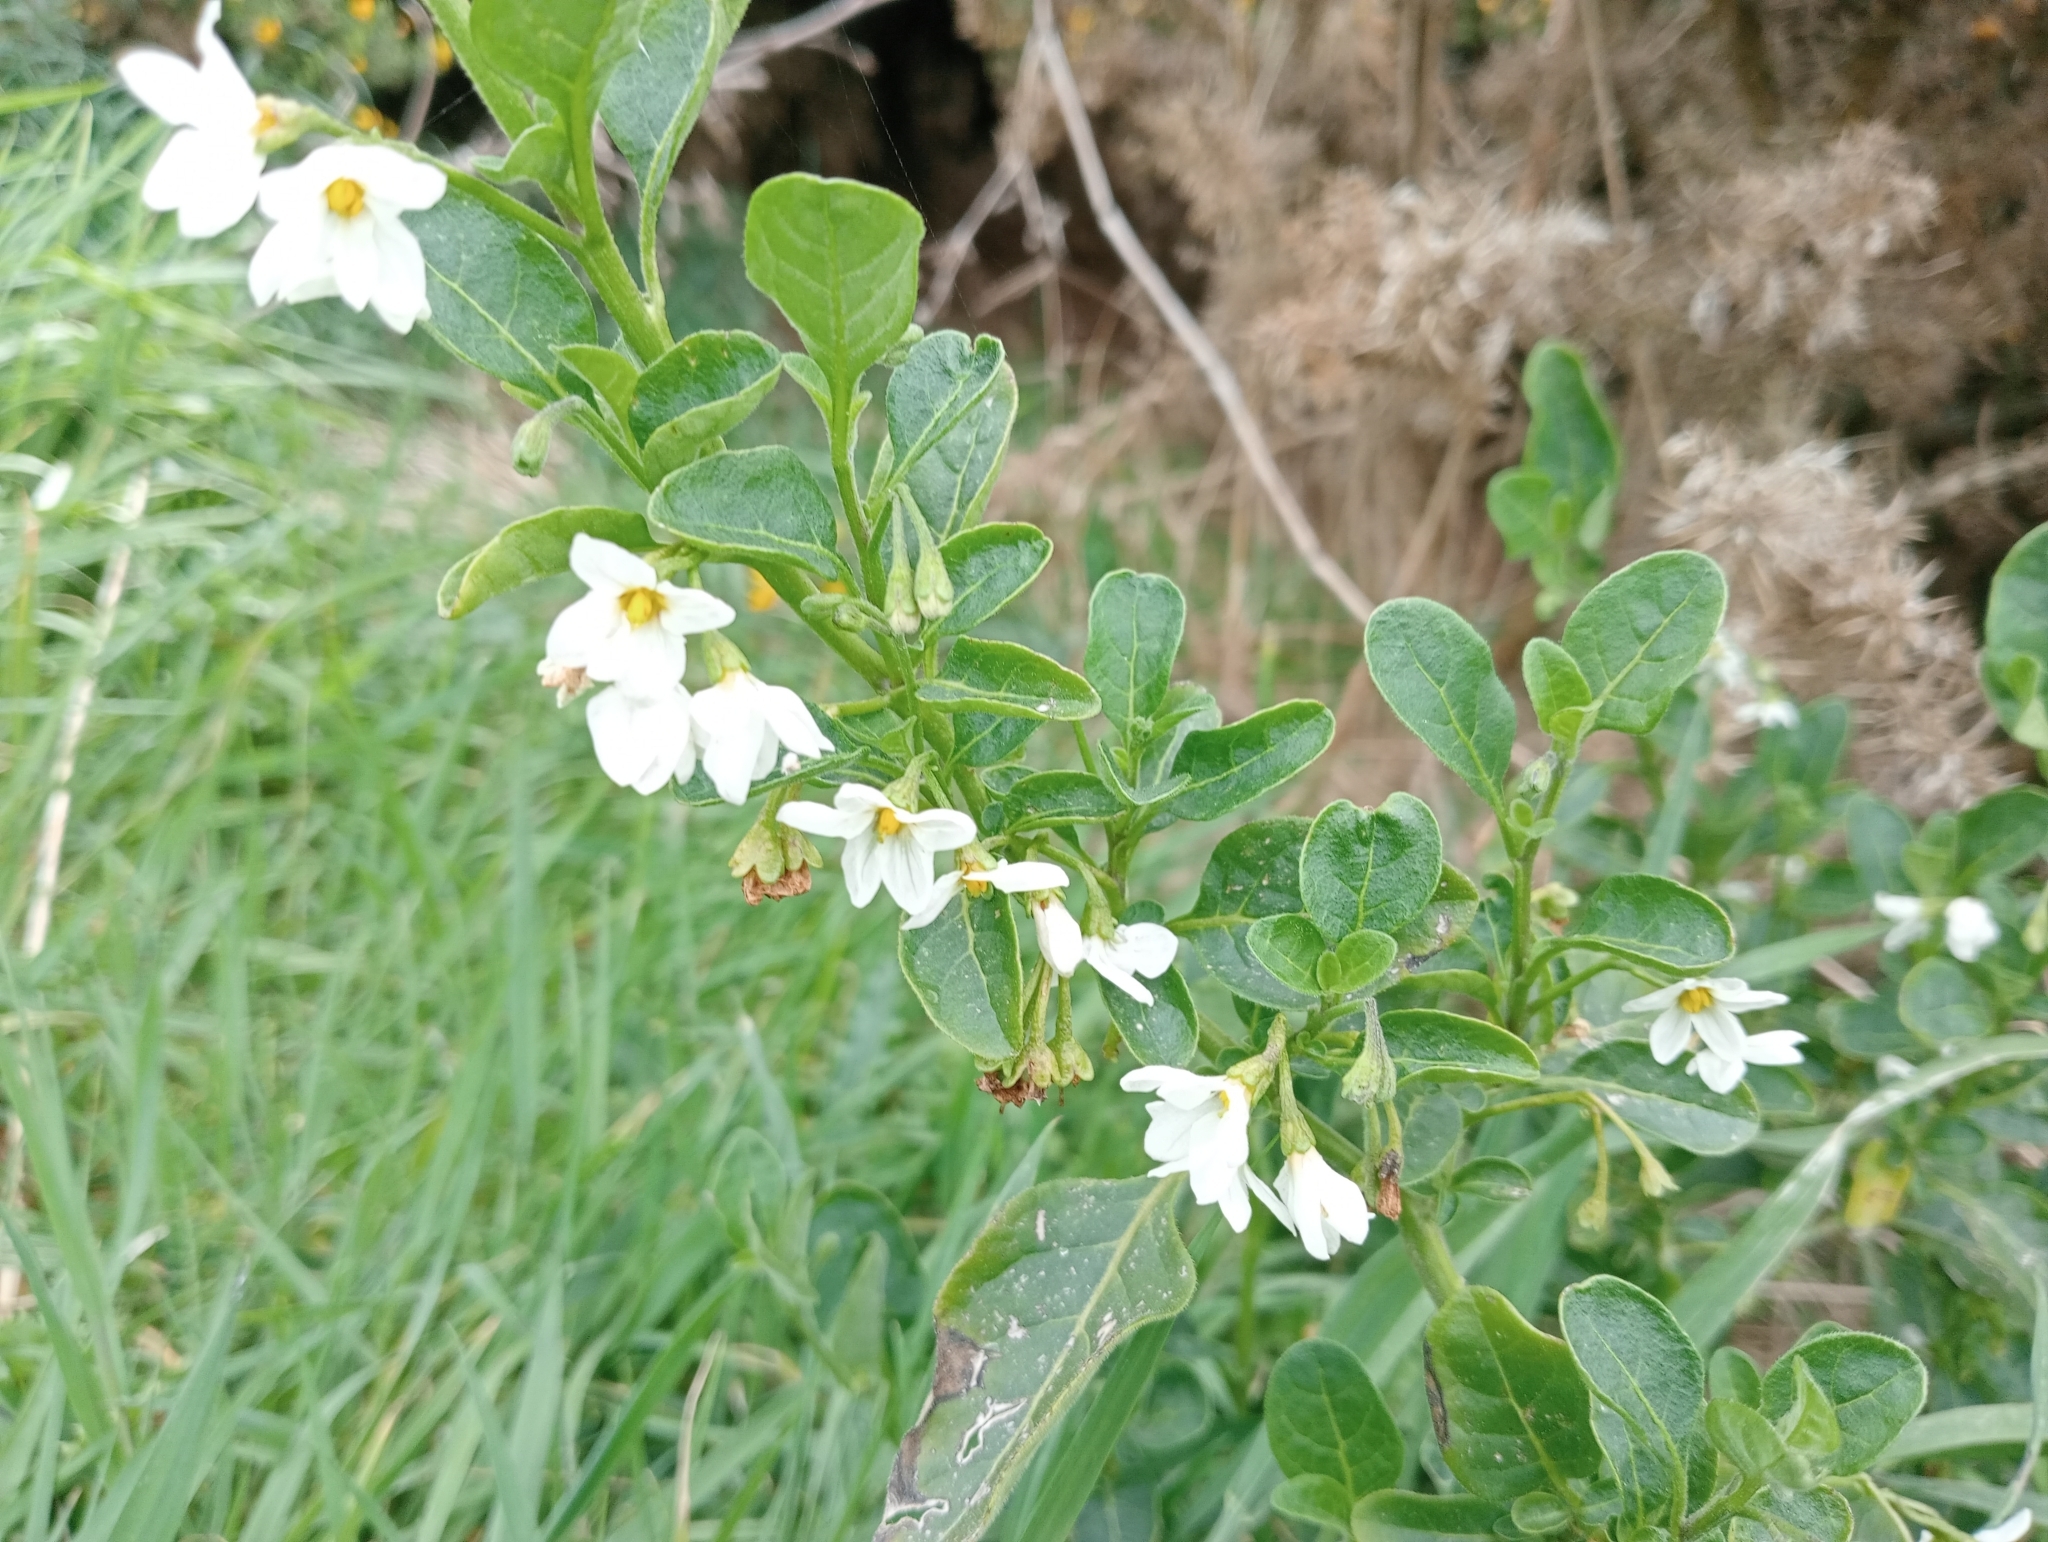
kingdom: Plantae
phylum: Tracheophyta
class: Magnoliopsida
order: Solanales
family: Solanaceae
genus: Solanum
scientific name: Solanum chenopodioides
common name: Tall nightshade
